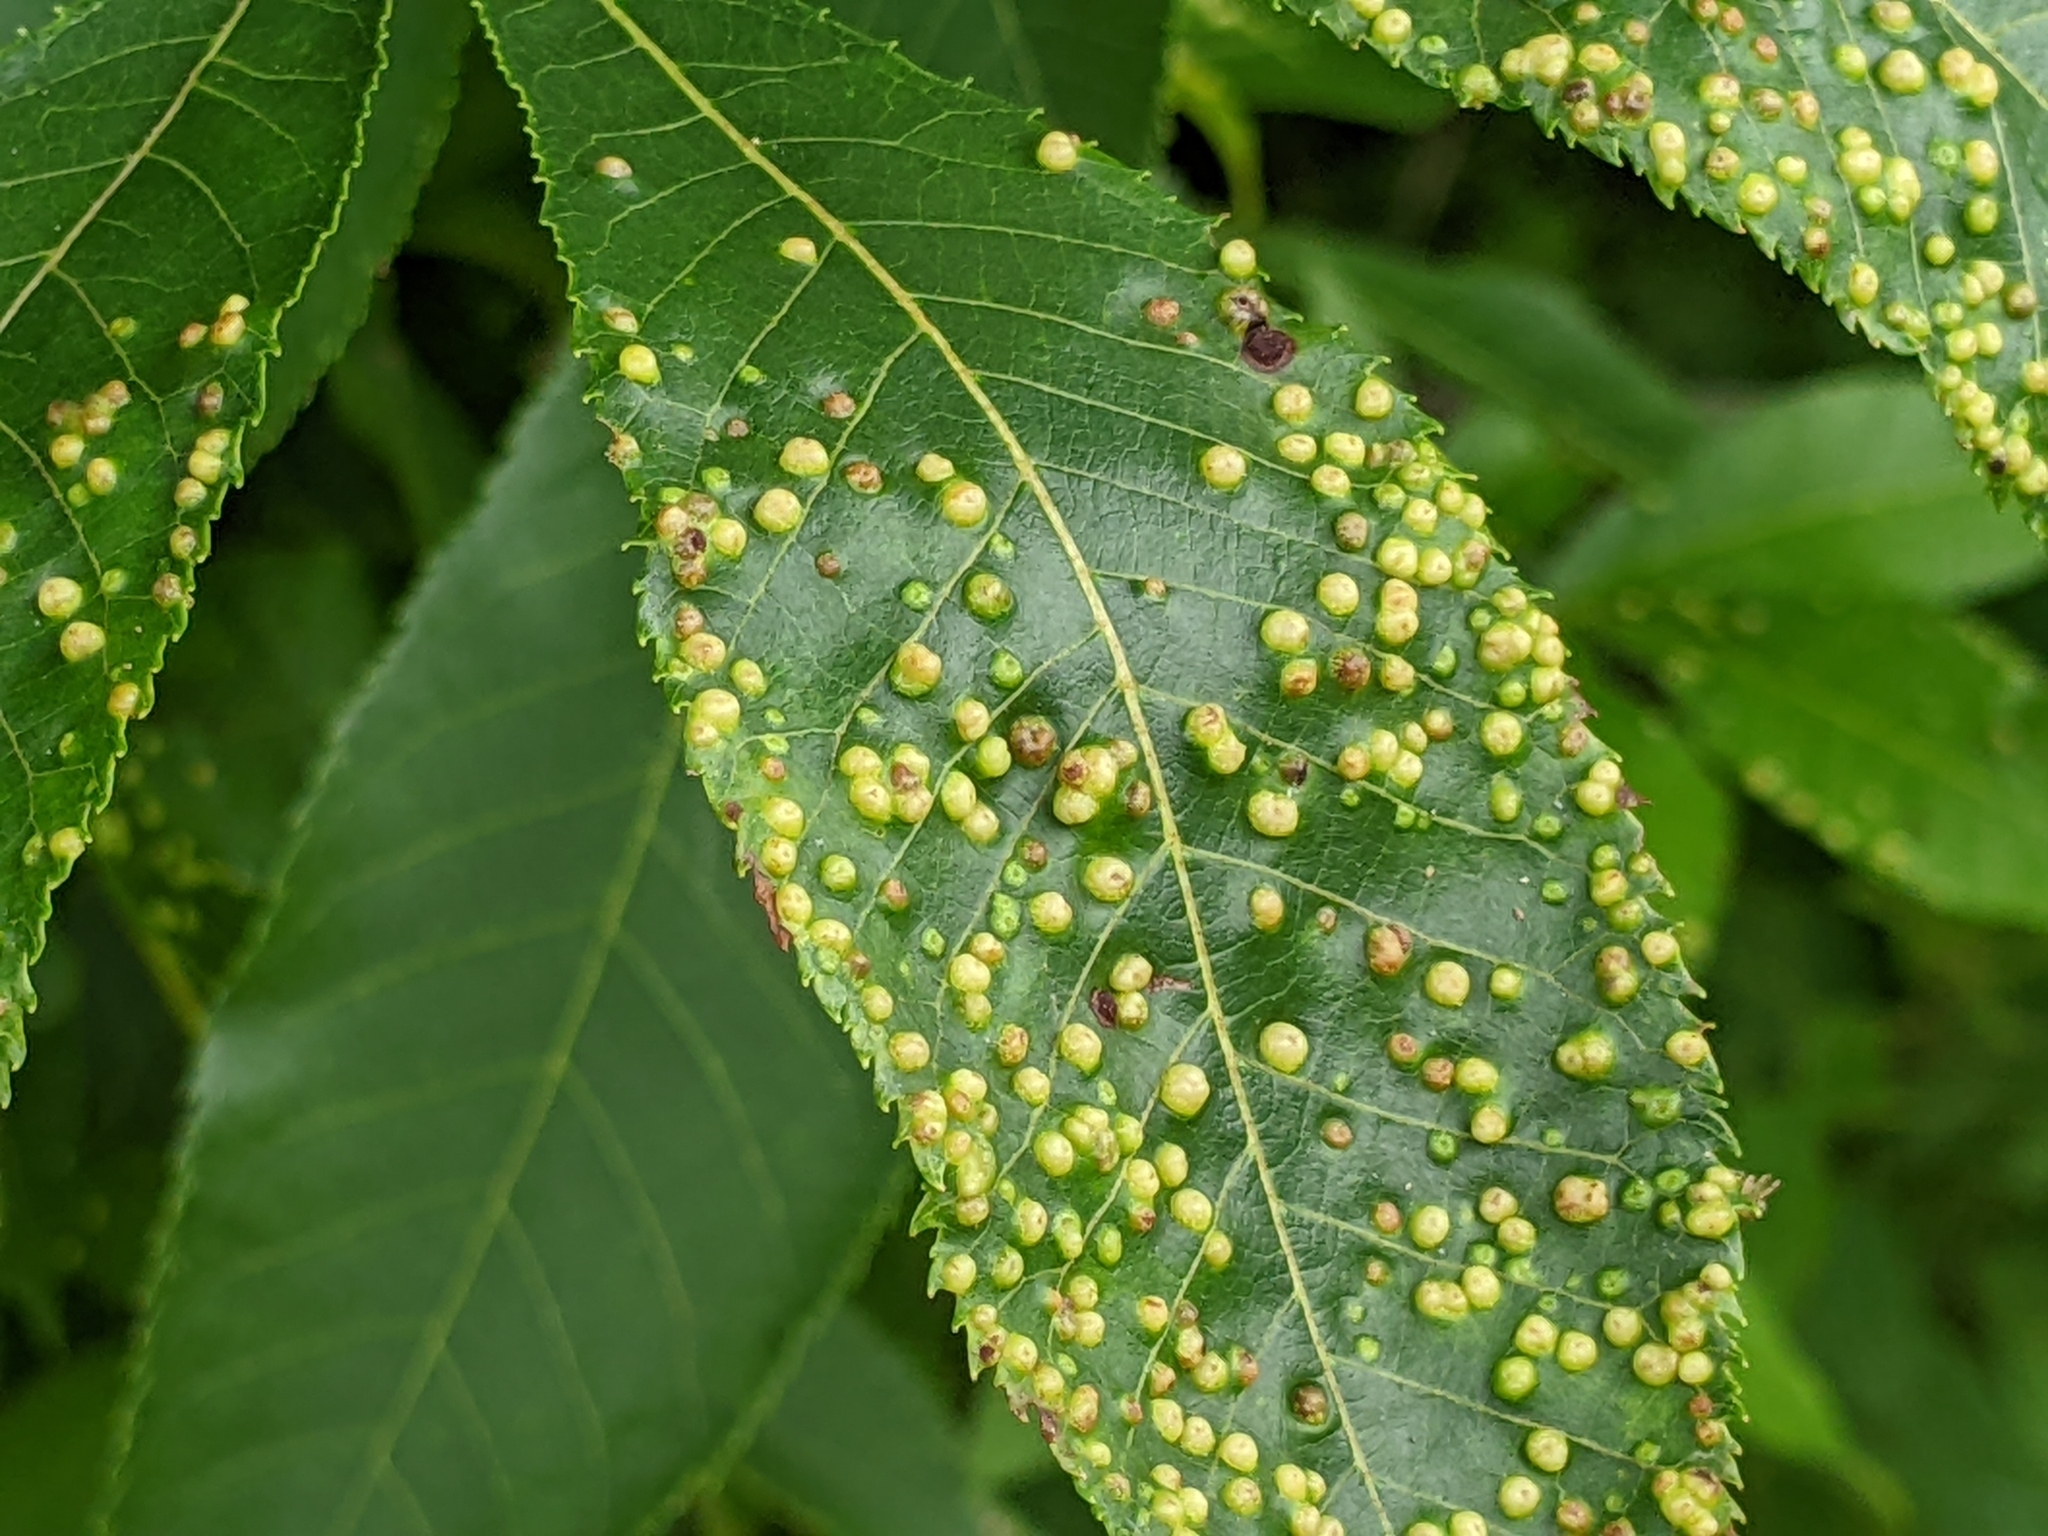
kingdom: Animalia
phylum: Arthropoda
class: Insecta
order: Hemiptera
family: Phylloxeridae
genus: Phylloxera
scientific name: Phylloxera caryae-semen
